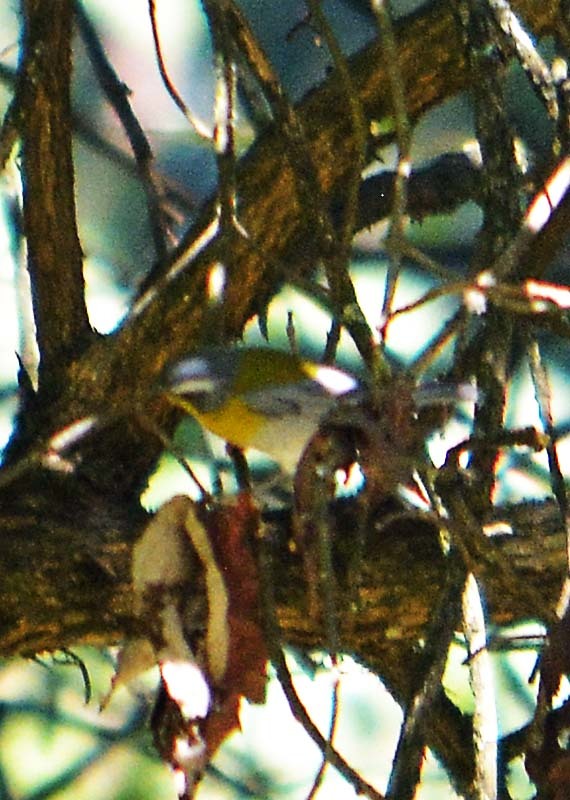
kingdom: Animalia
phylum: Chordata
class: Aves
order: Passeriformes
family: Parulidae
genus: Oreothlypis
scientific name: Oreothlypis superciliosa
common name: Crescent-chested warbler
